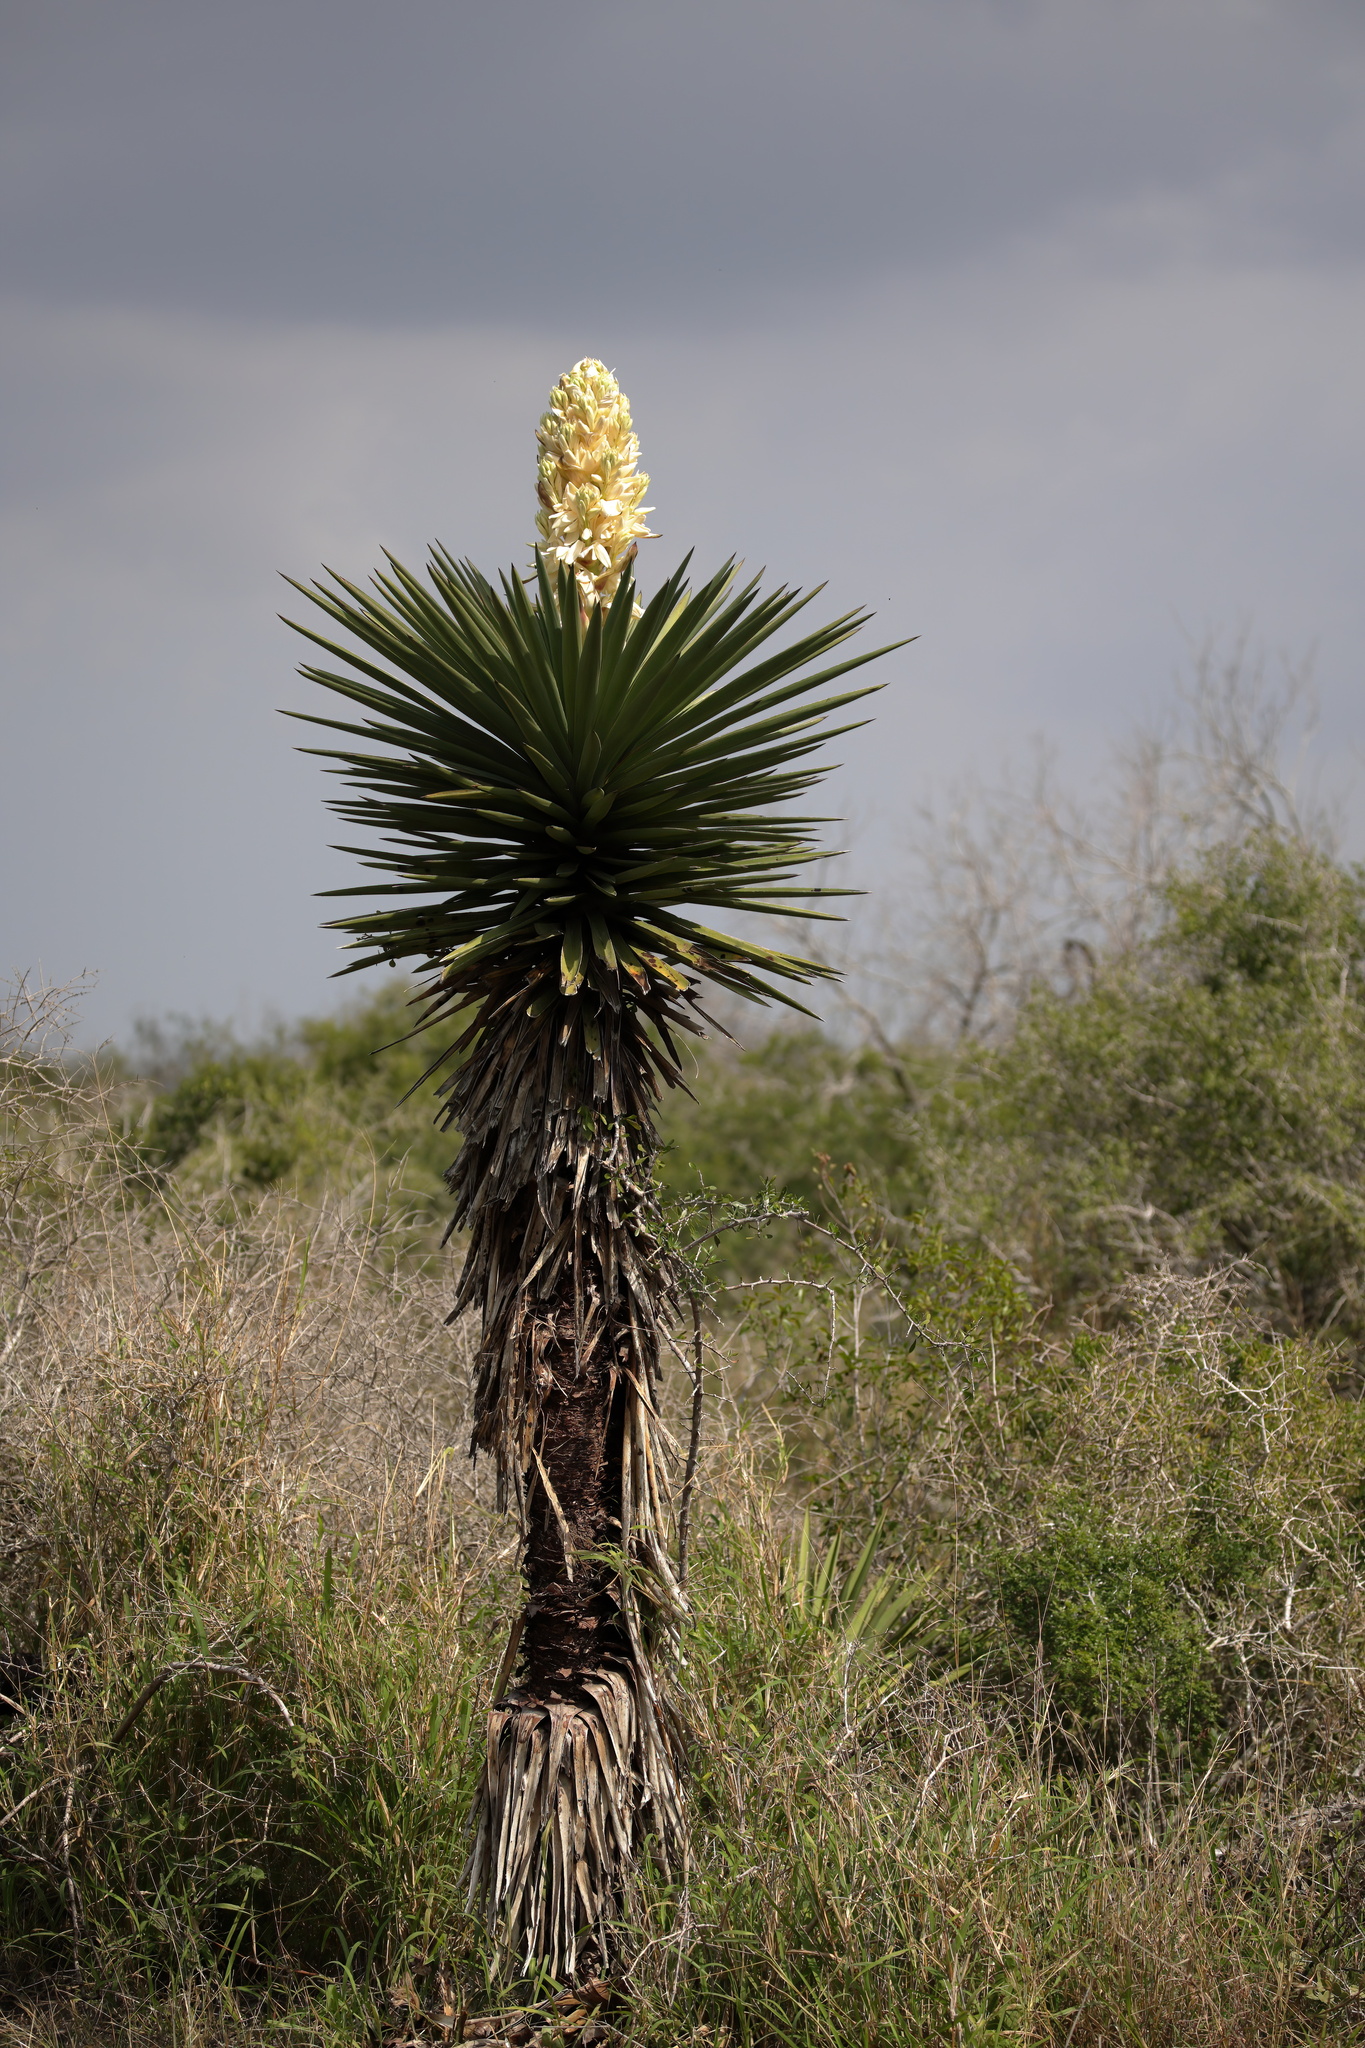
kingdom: Plantae
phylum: Tracheophyta
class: Liliopsida
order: Asparagales
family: Asparagaceae
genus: Yucca
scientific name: Yucca treculiana
